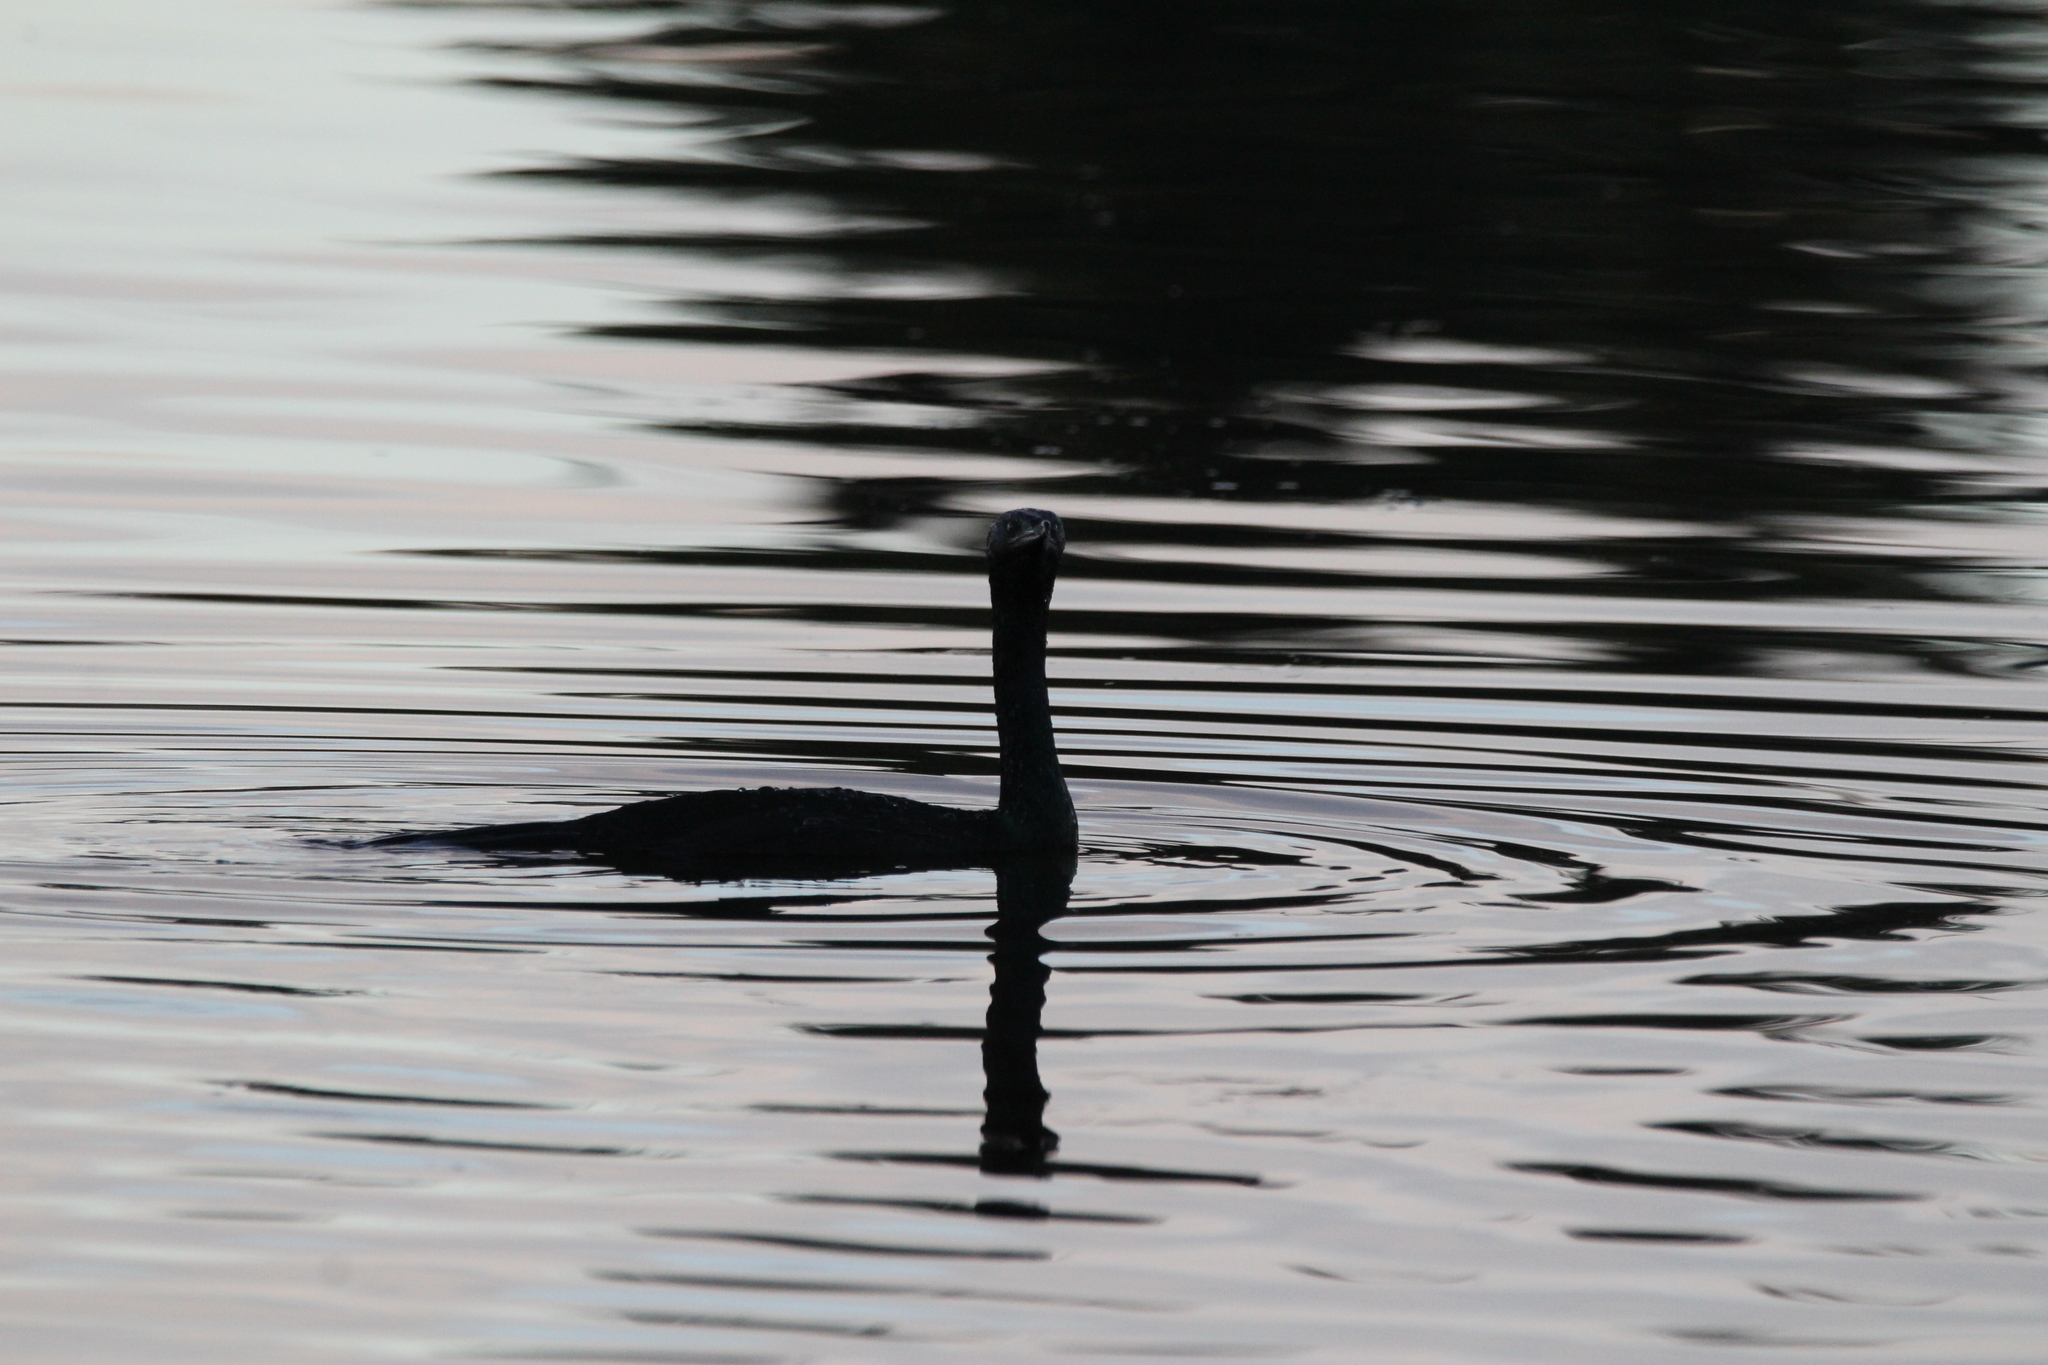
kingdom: Animalia
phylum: Chordata
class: Aves
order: Suliformes
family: Phalacrocoracidae
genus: Phalacrocorax
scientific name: Phalacrocorax pelagicus
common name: Pelagic cormorant
